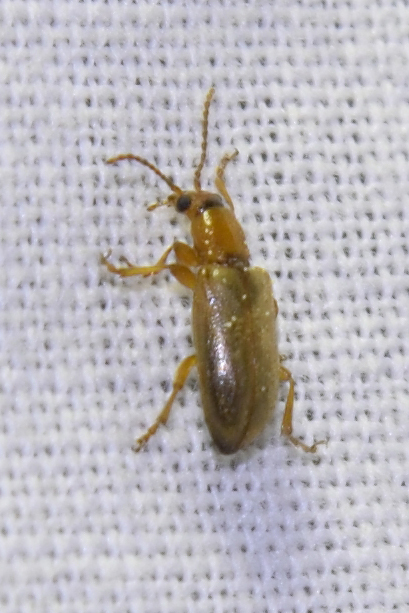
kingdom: Animalia
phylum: Arthropoda
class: Insecta
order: Coleoptera
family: Orsodacnidae
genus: Orsodacne
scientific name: Orsodacne cerasi
